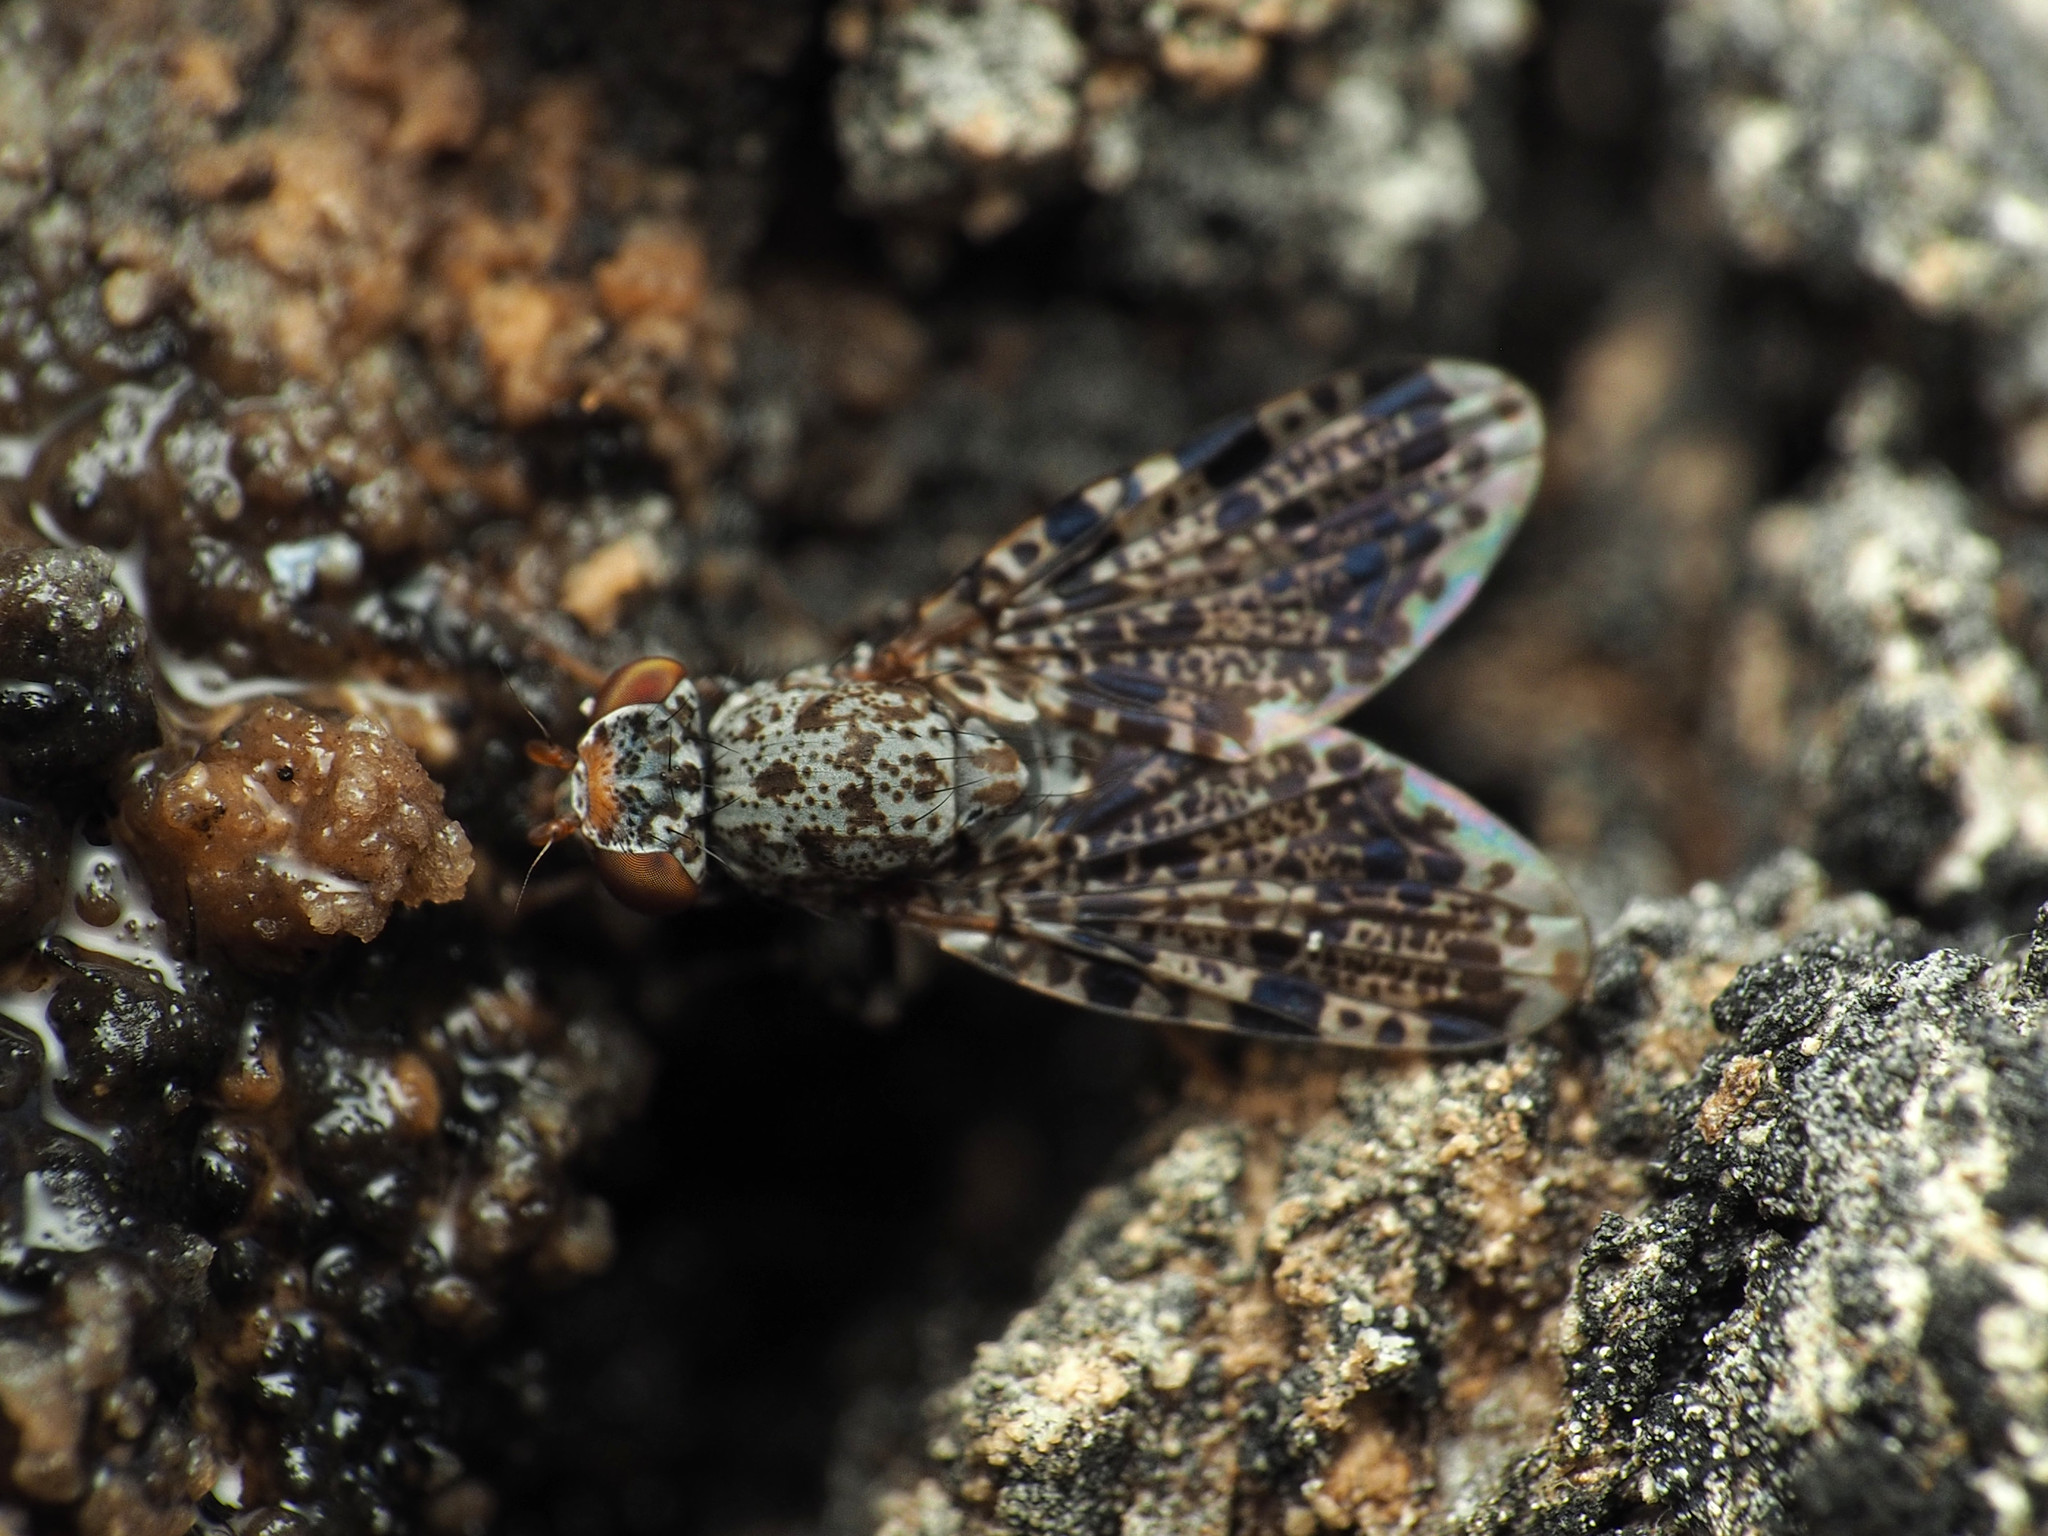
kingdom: Animalia
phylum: Arthropoda
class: Insecta
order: Diptera
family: Ulidiidae
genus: Callopistromyia
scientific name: Callopistromyia annulipes
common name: Peacock fly
